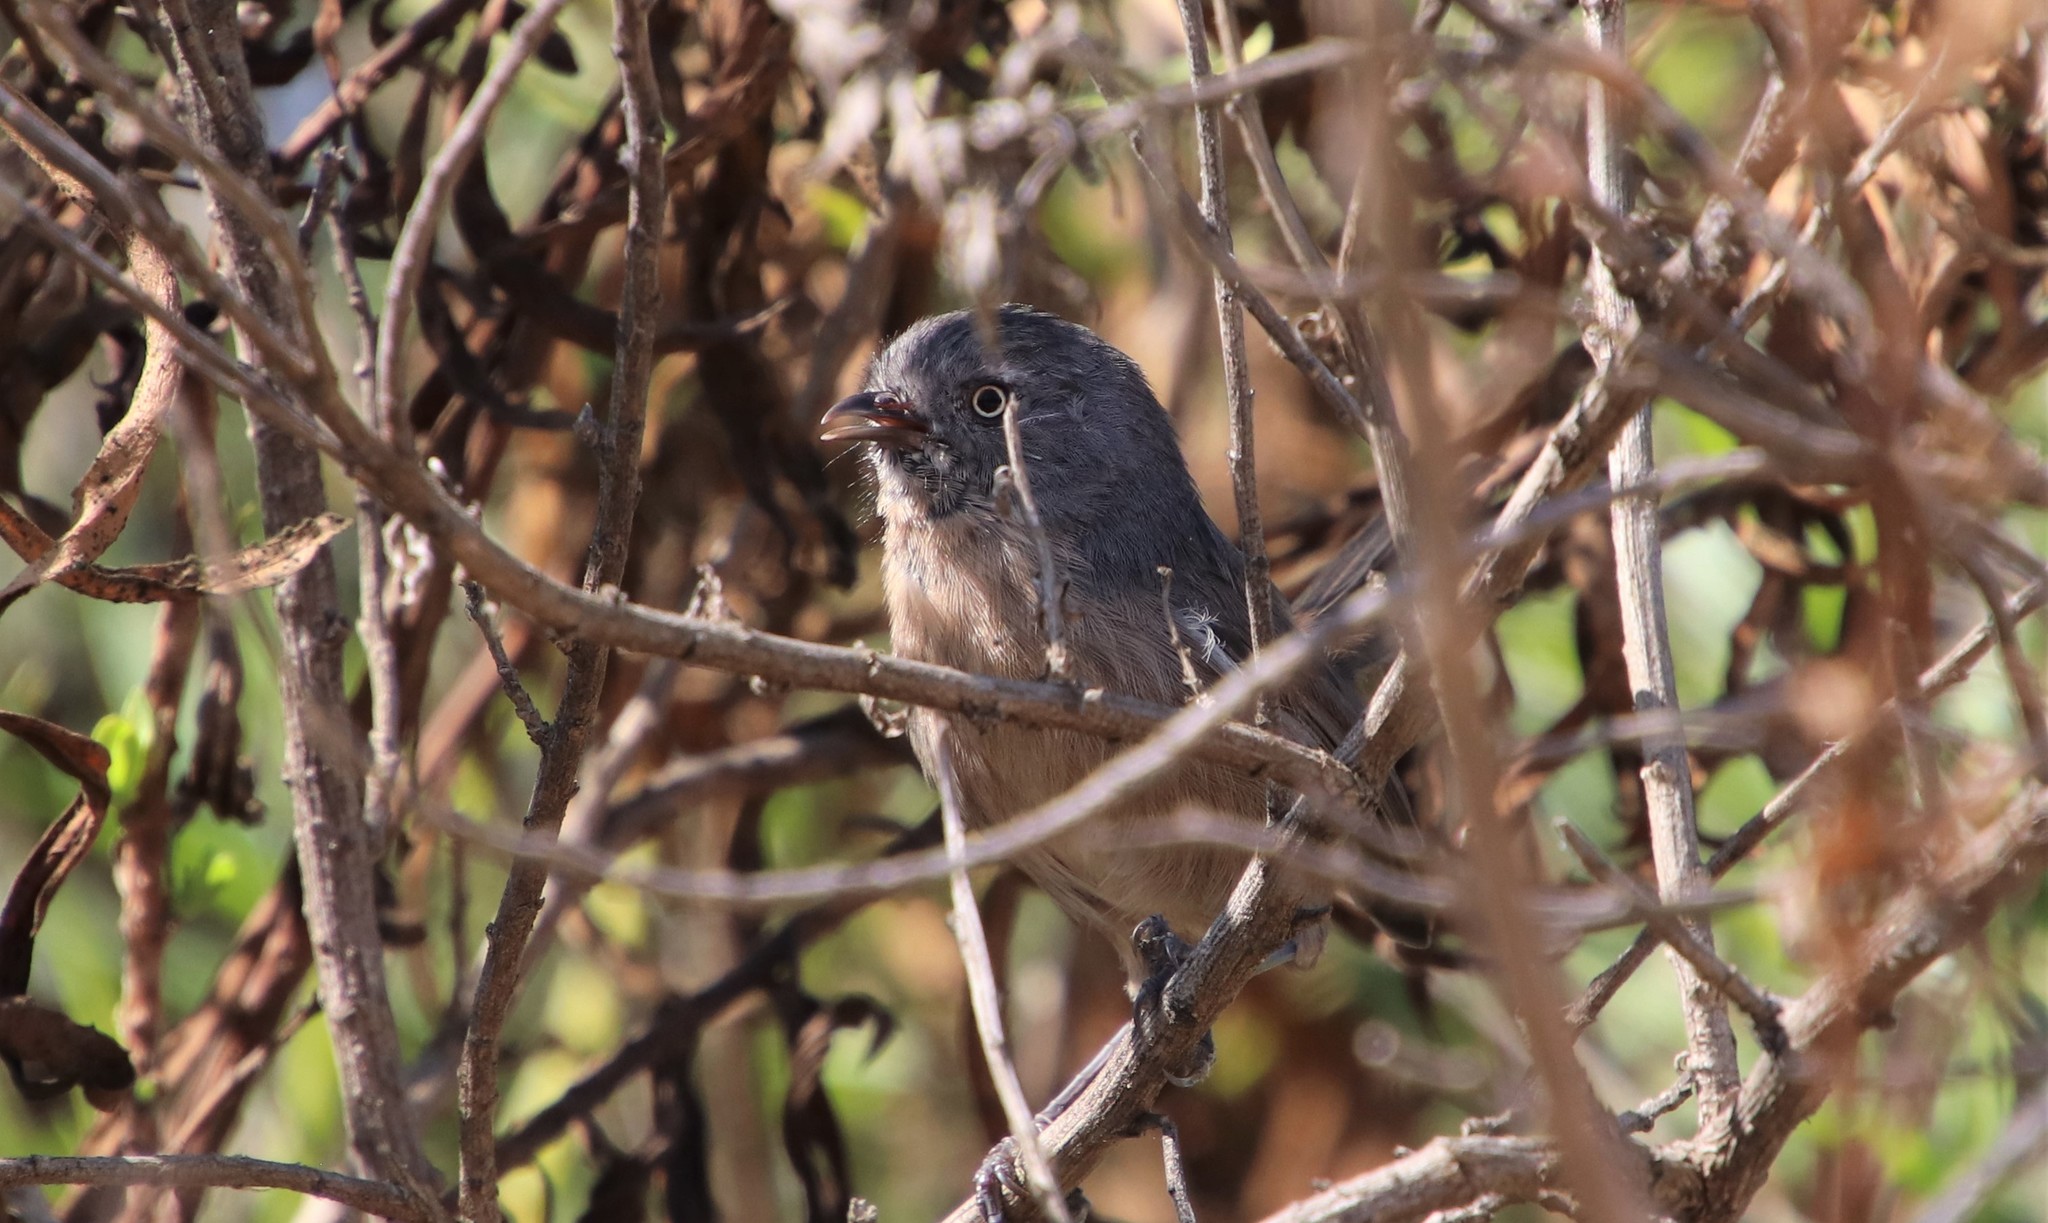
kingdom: Animalia
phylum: Chordata
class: Aves
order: Passeriformes
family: Sylviidae
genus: Chamaea
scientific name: Chamaea fasciata
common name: Wrentit
